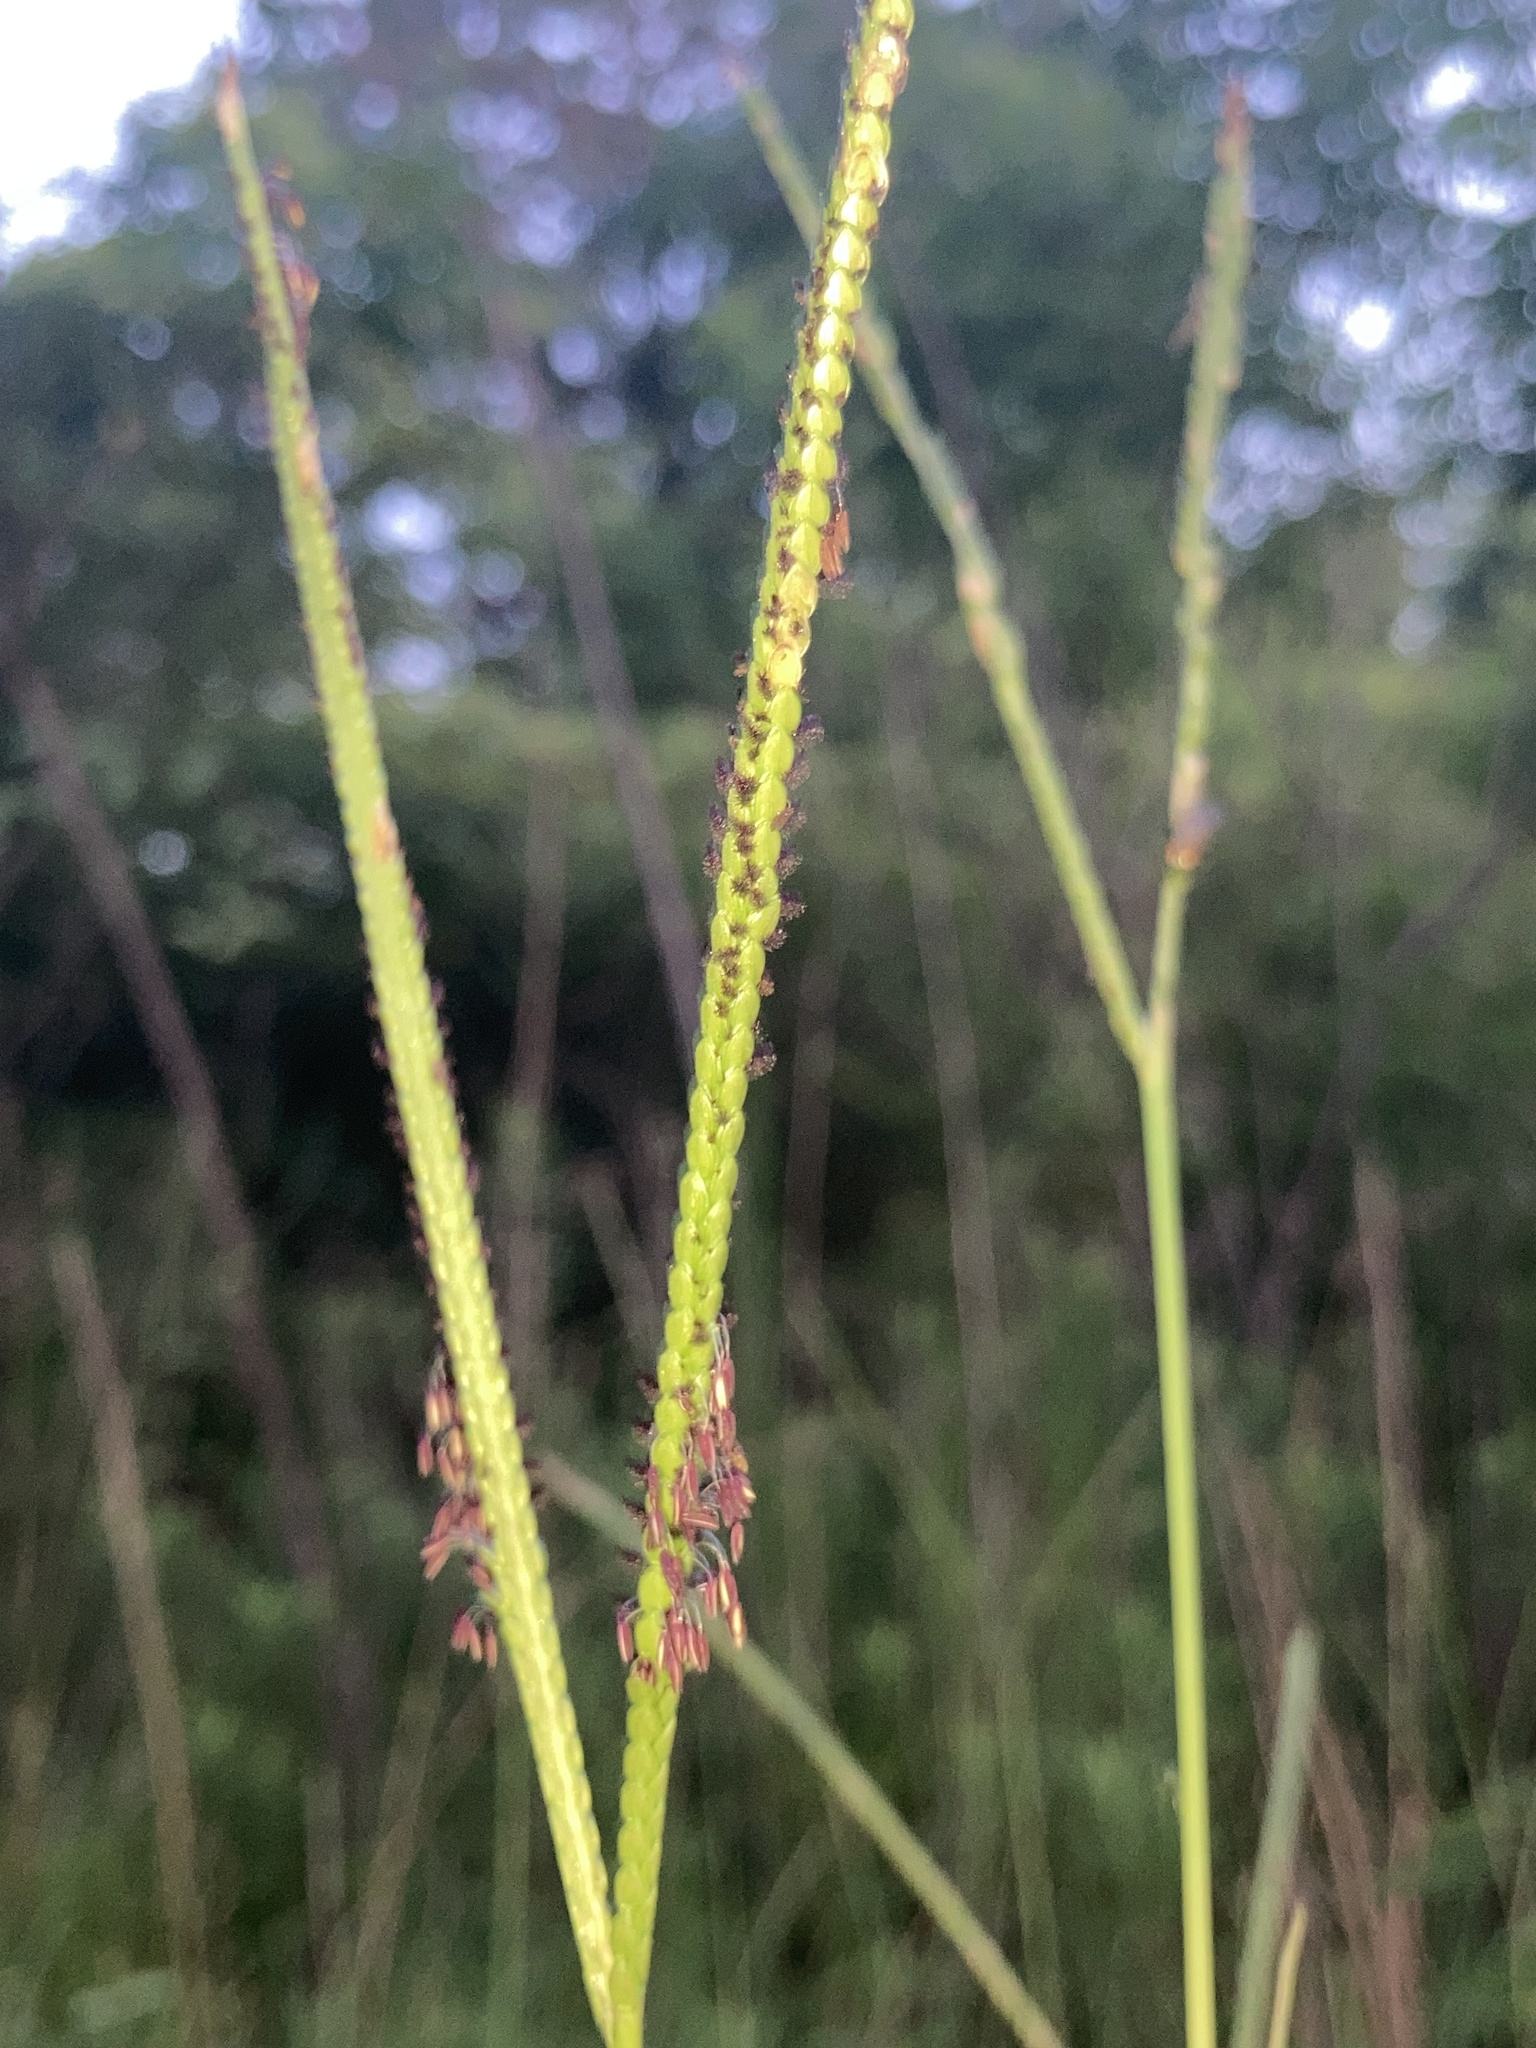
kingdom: Plantae
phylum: Tracheophyta
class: Liliopsida
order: Poales
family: Poaceae
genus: Paspalum
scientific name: Paspalum notatum
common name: Bahiagrass
